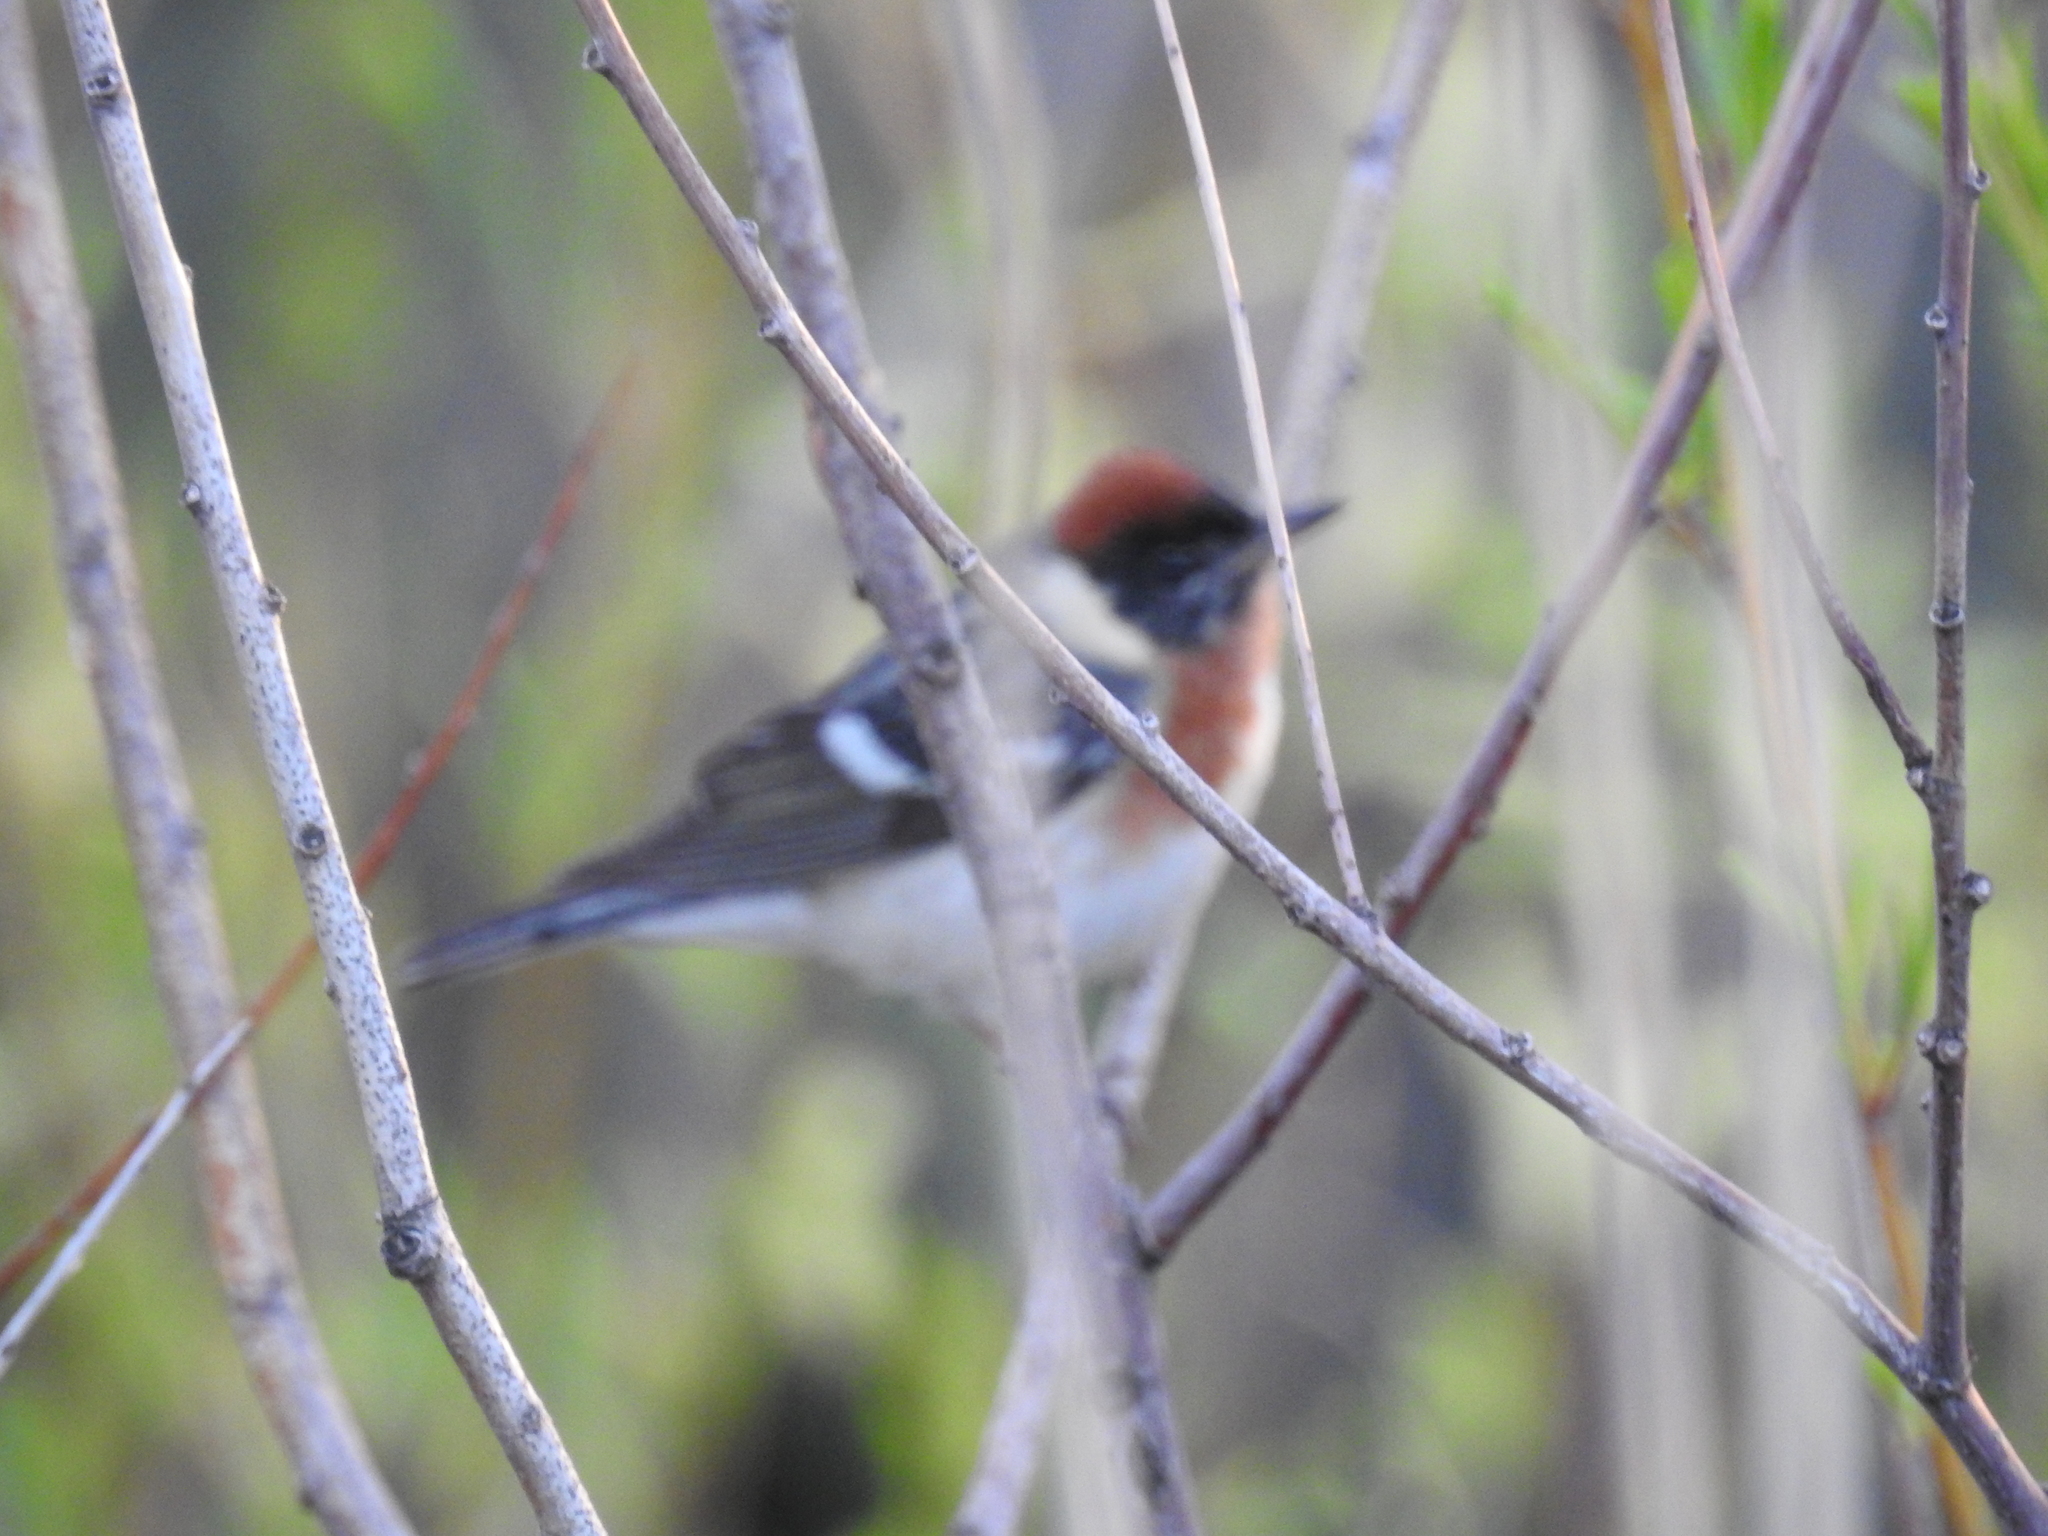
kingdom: Animalia
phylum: Chordata
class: Aves
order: Passeriformes
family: Parulidae
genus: Setophaga
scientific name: Setophaga castanea
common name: Bay-breasted warbler
